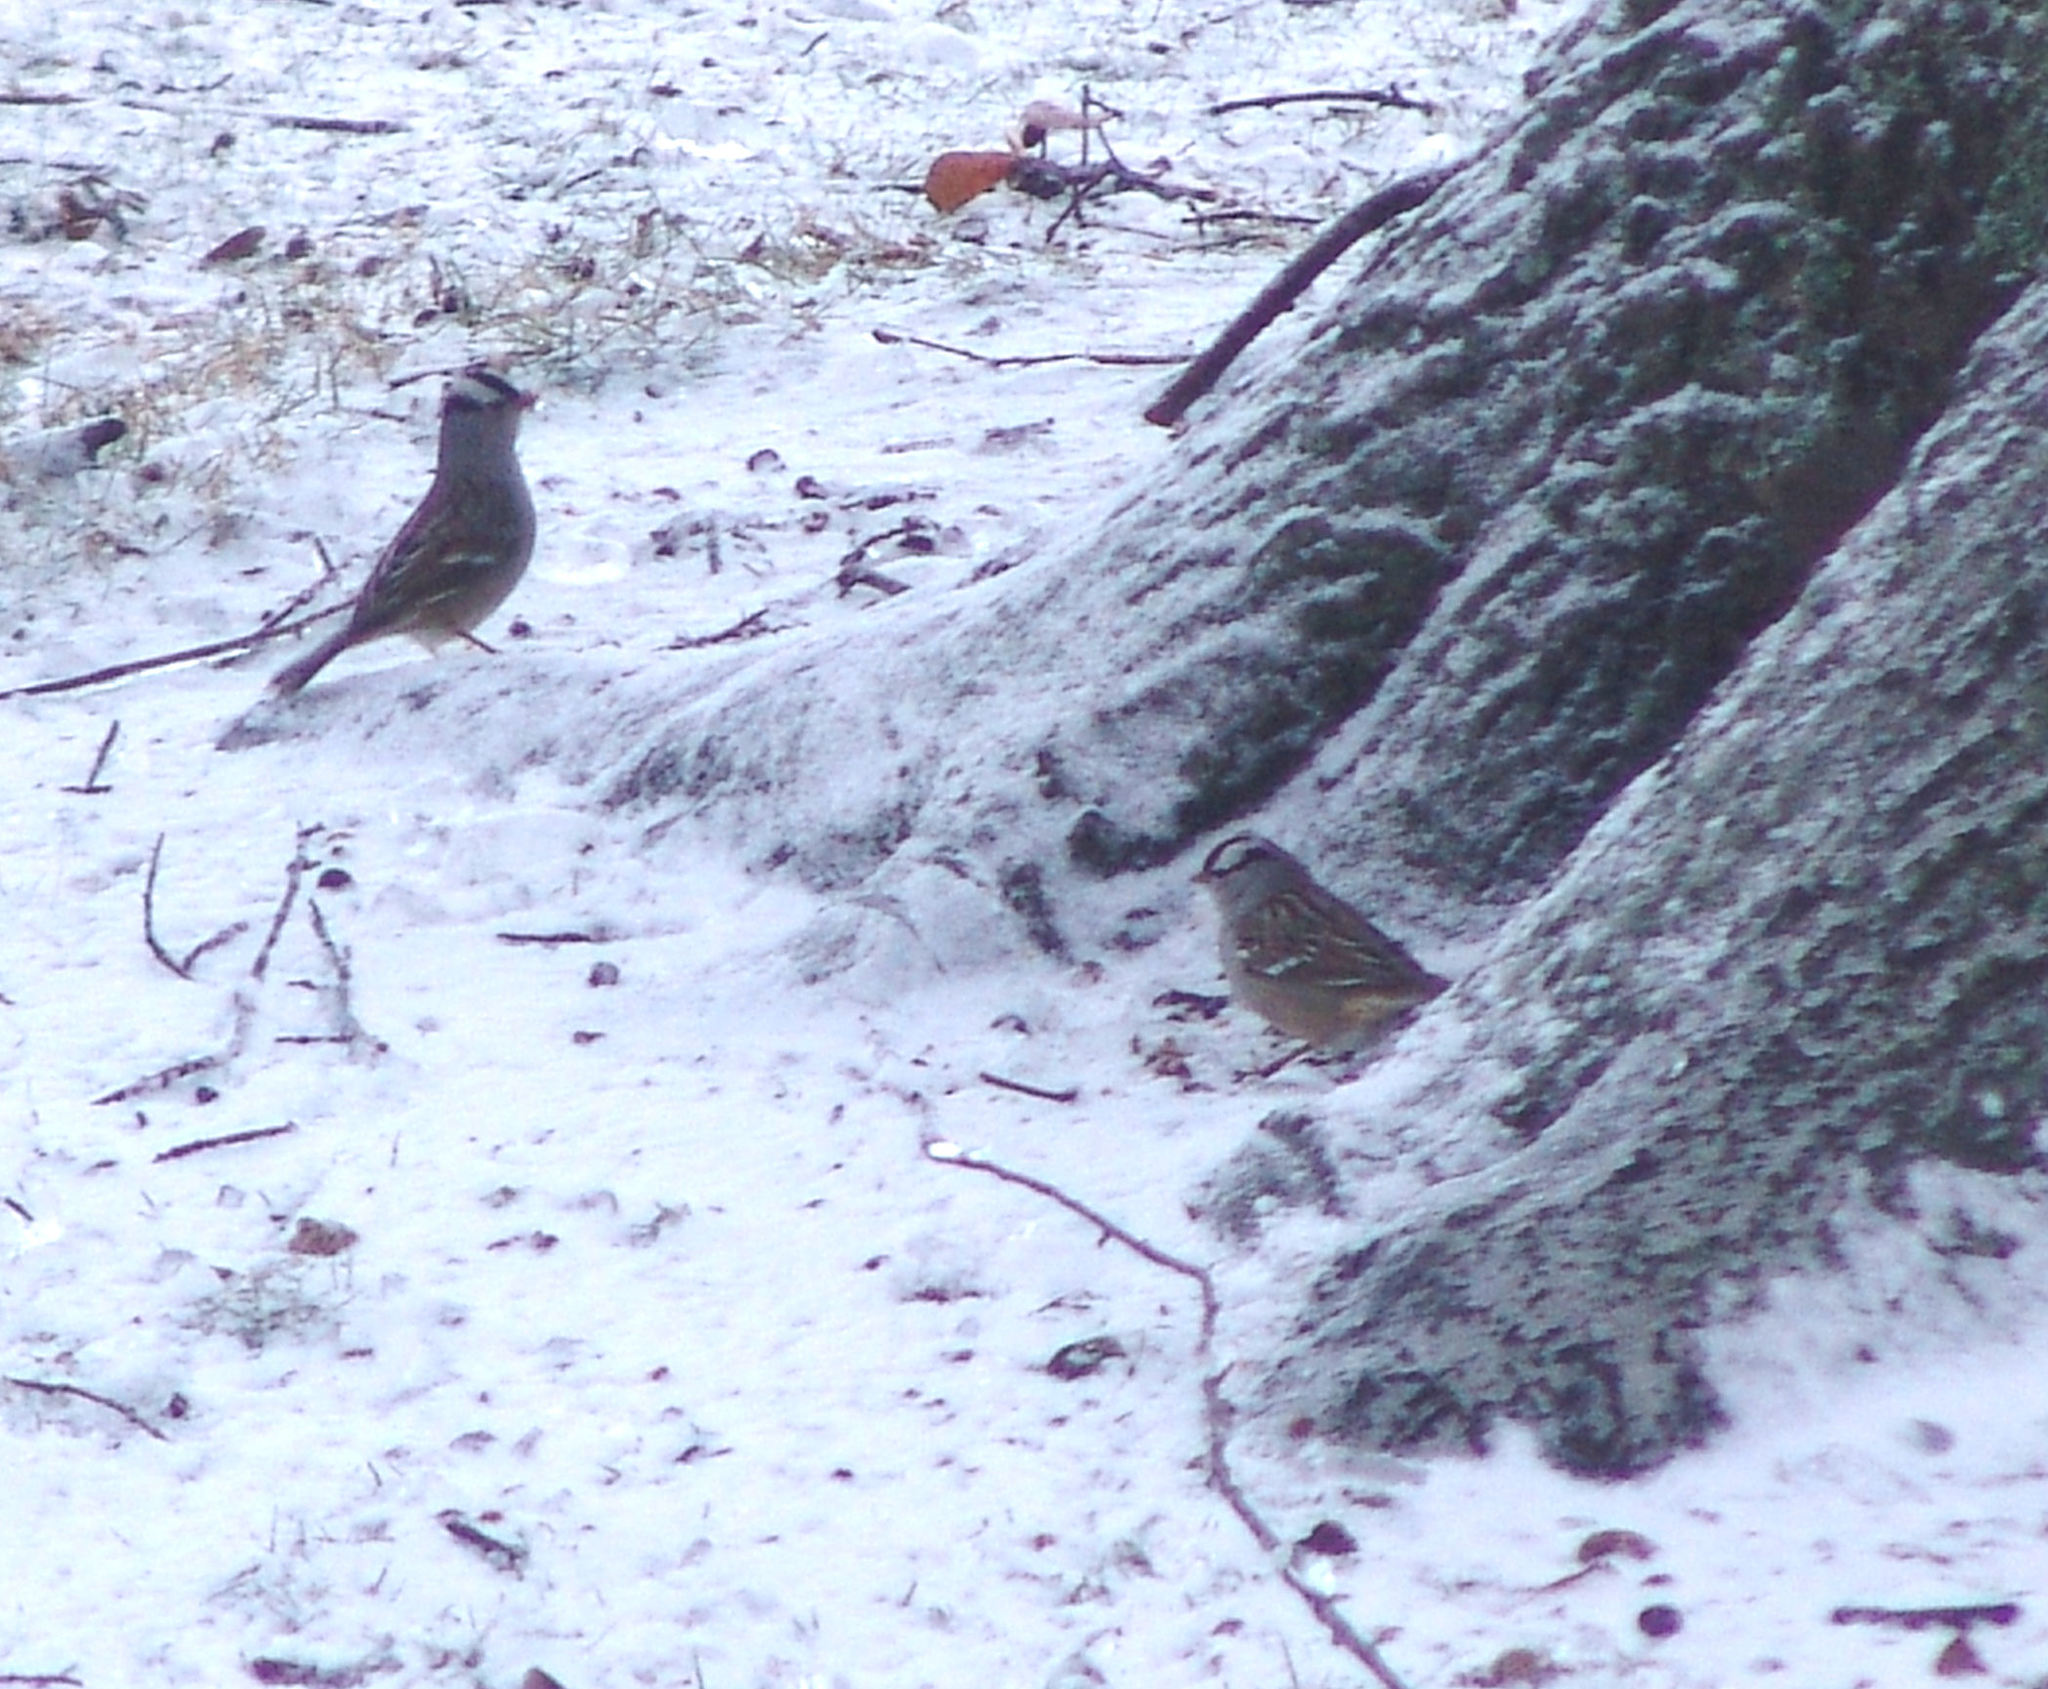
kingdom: Animalia
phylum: Chordata
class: Aves
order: Passeriformes
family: Passerellidae
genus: Zonotrichia
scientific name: Zonotrichia leucophrys
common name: White-crowned sparrow
